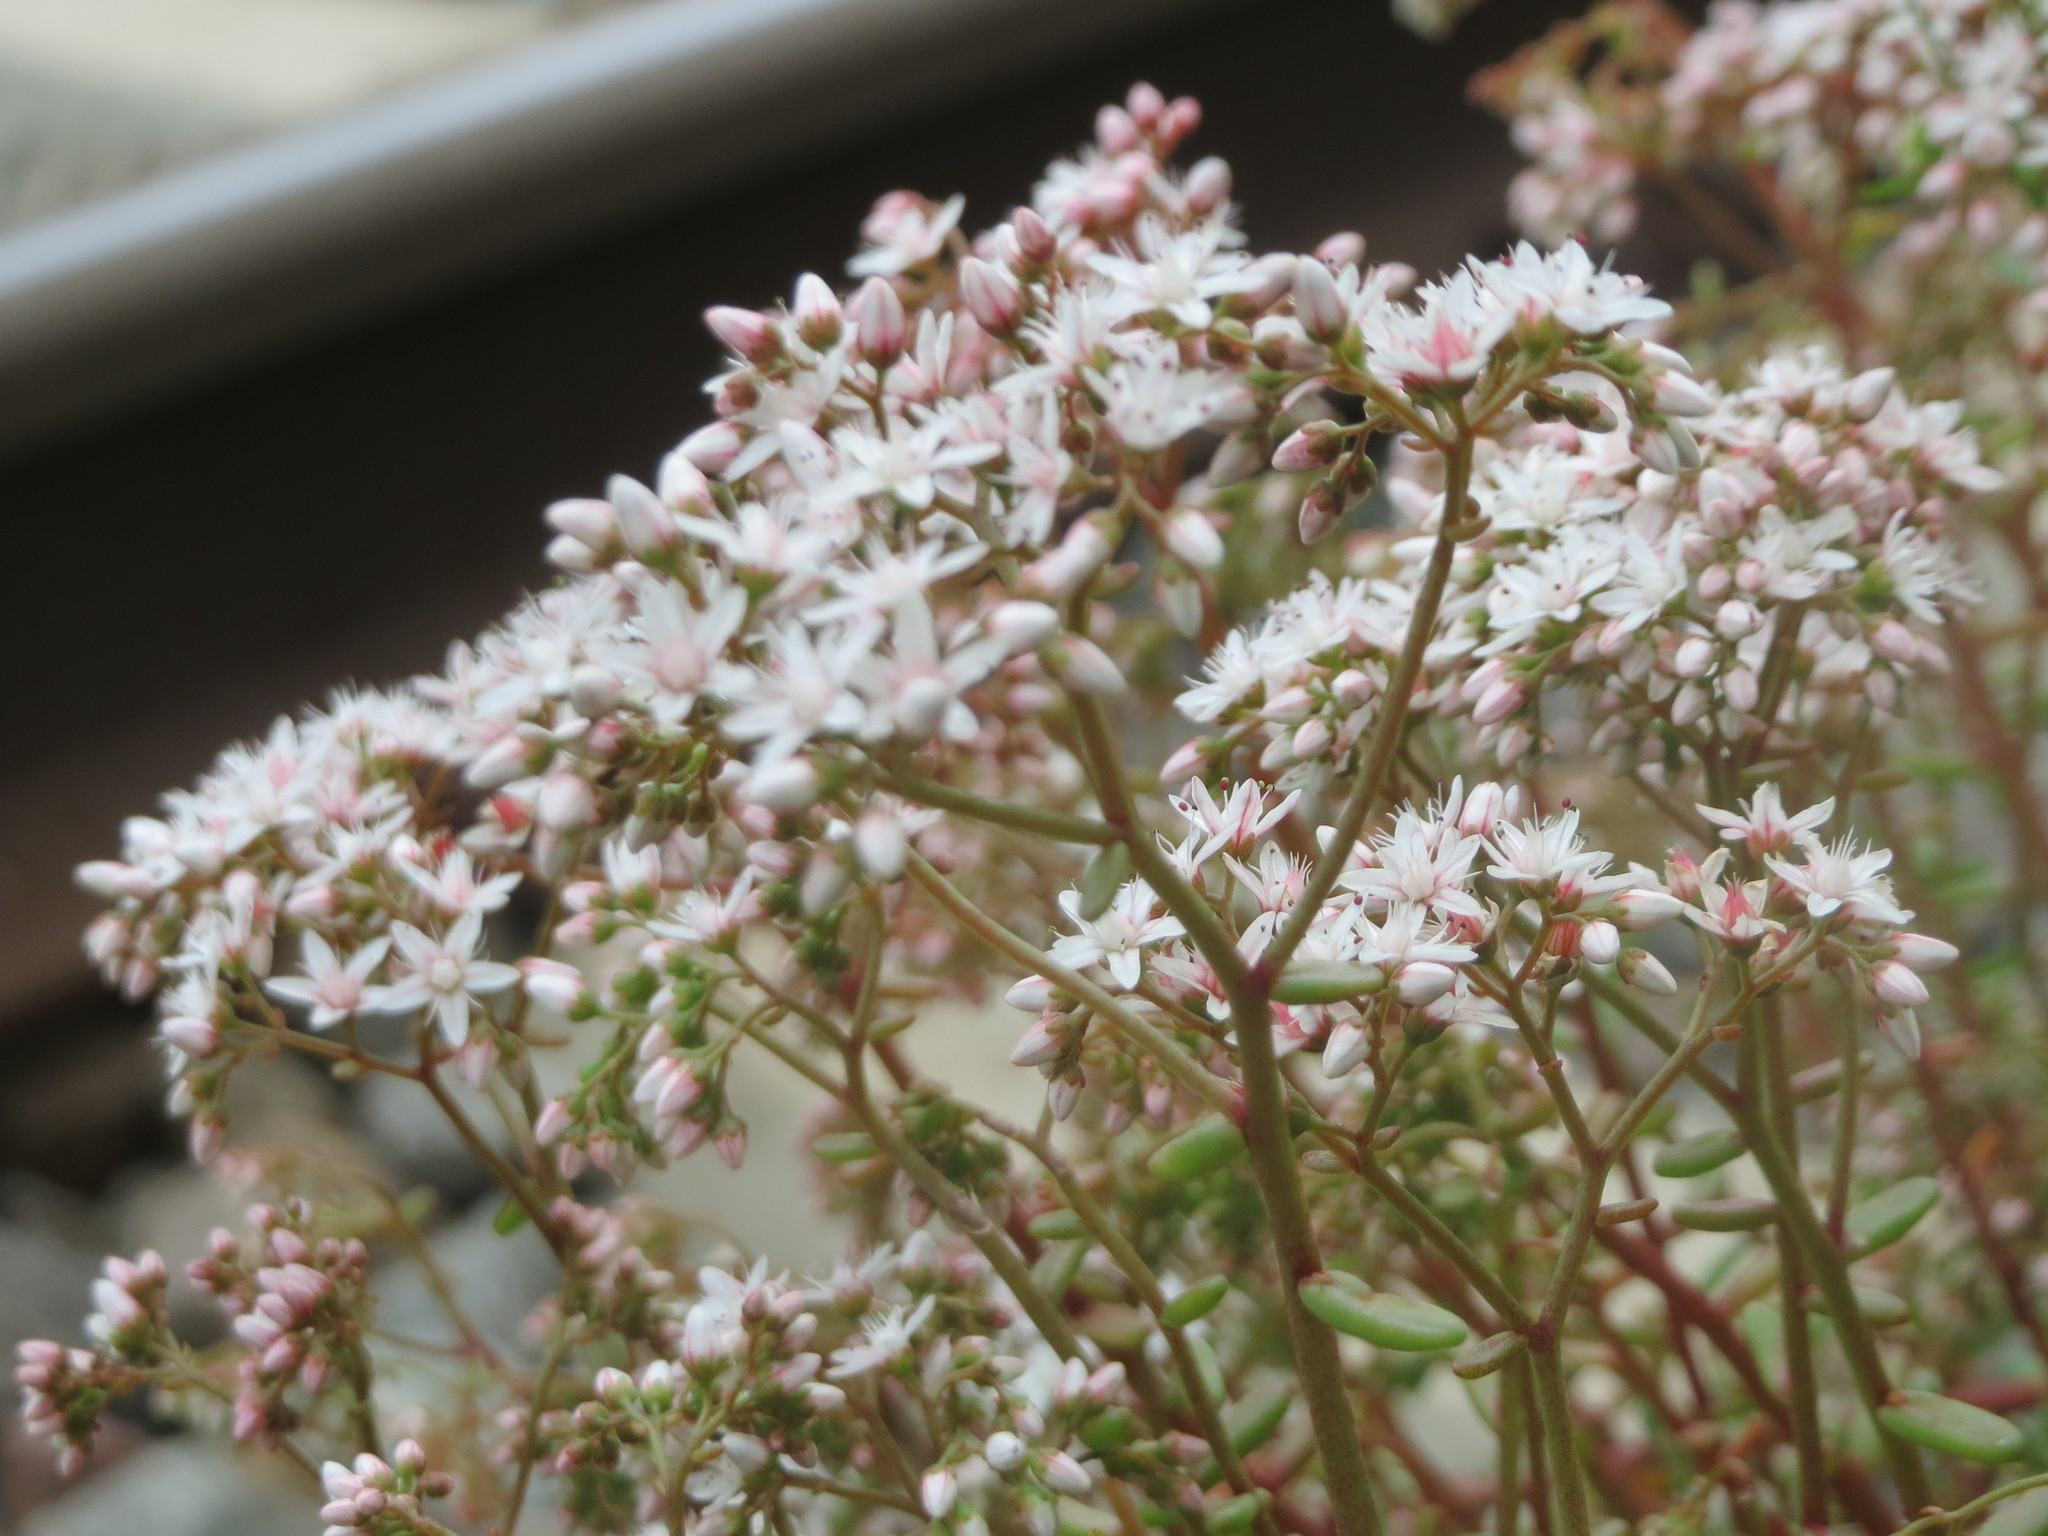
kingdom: Plantae
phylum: Tracheophyta
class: Magnoliopsida
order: Saxifragales
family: Crassulaceae
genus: Sedum
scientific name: Sedum album
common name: White stonecrop
